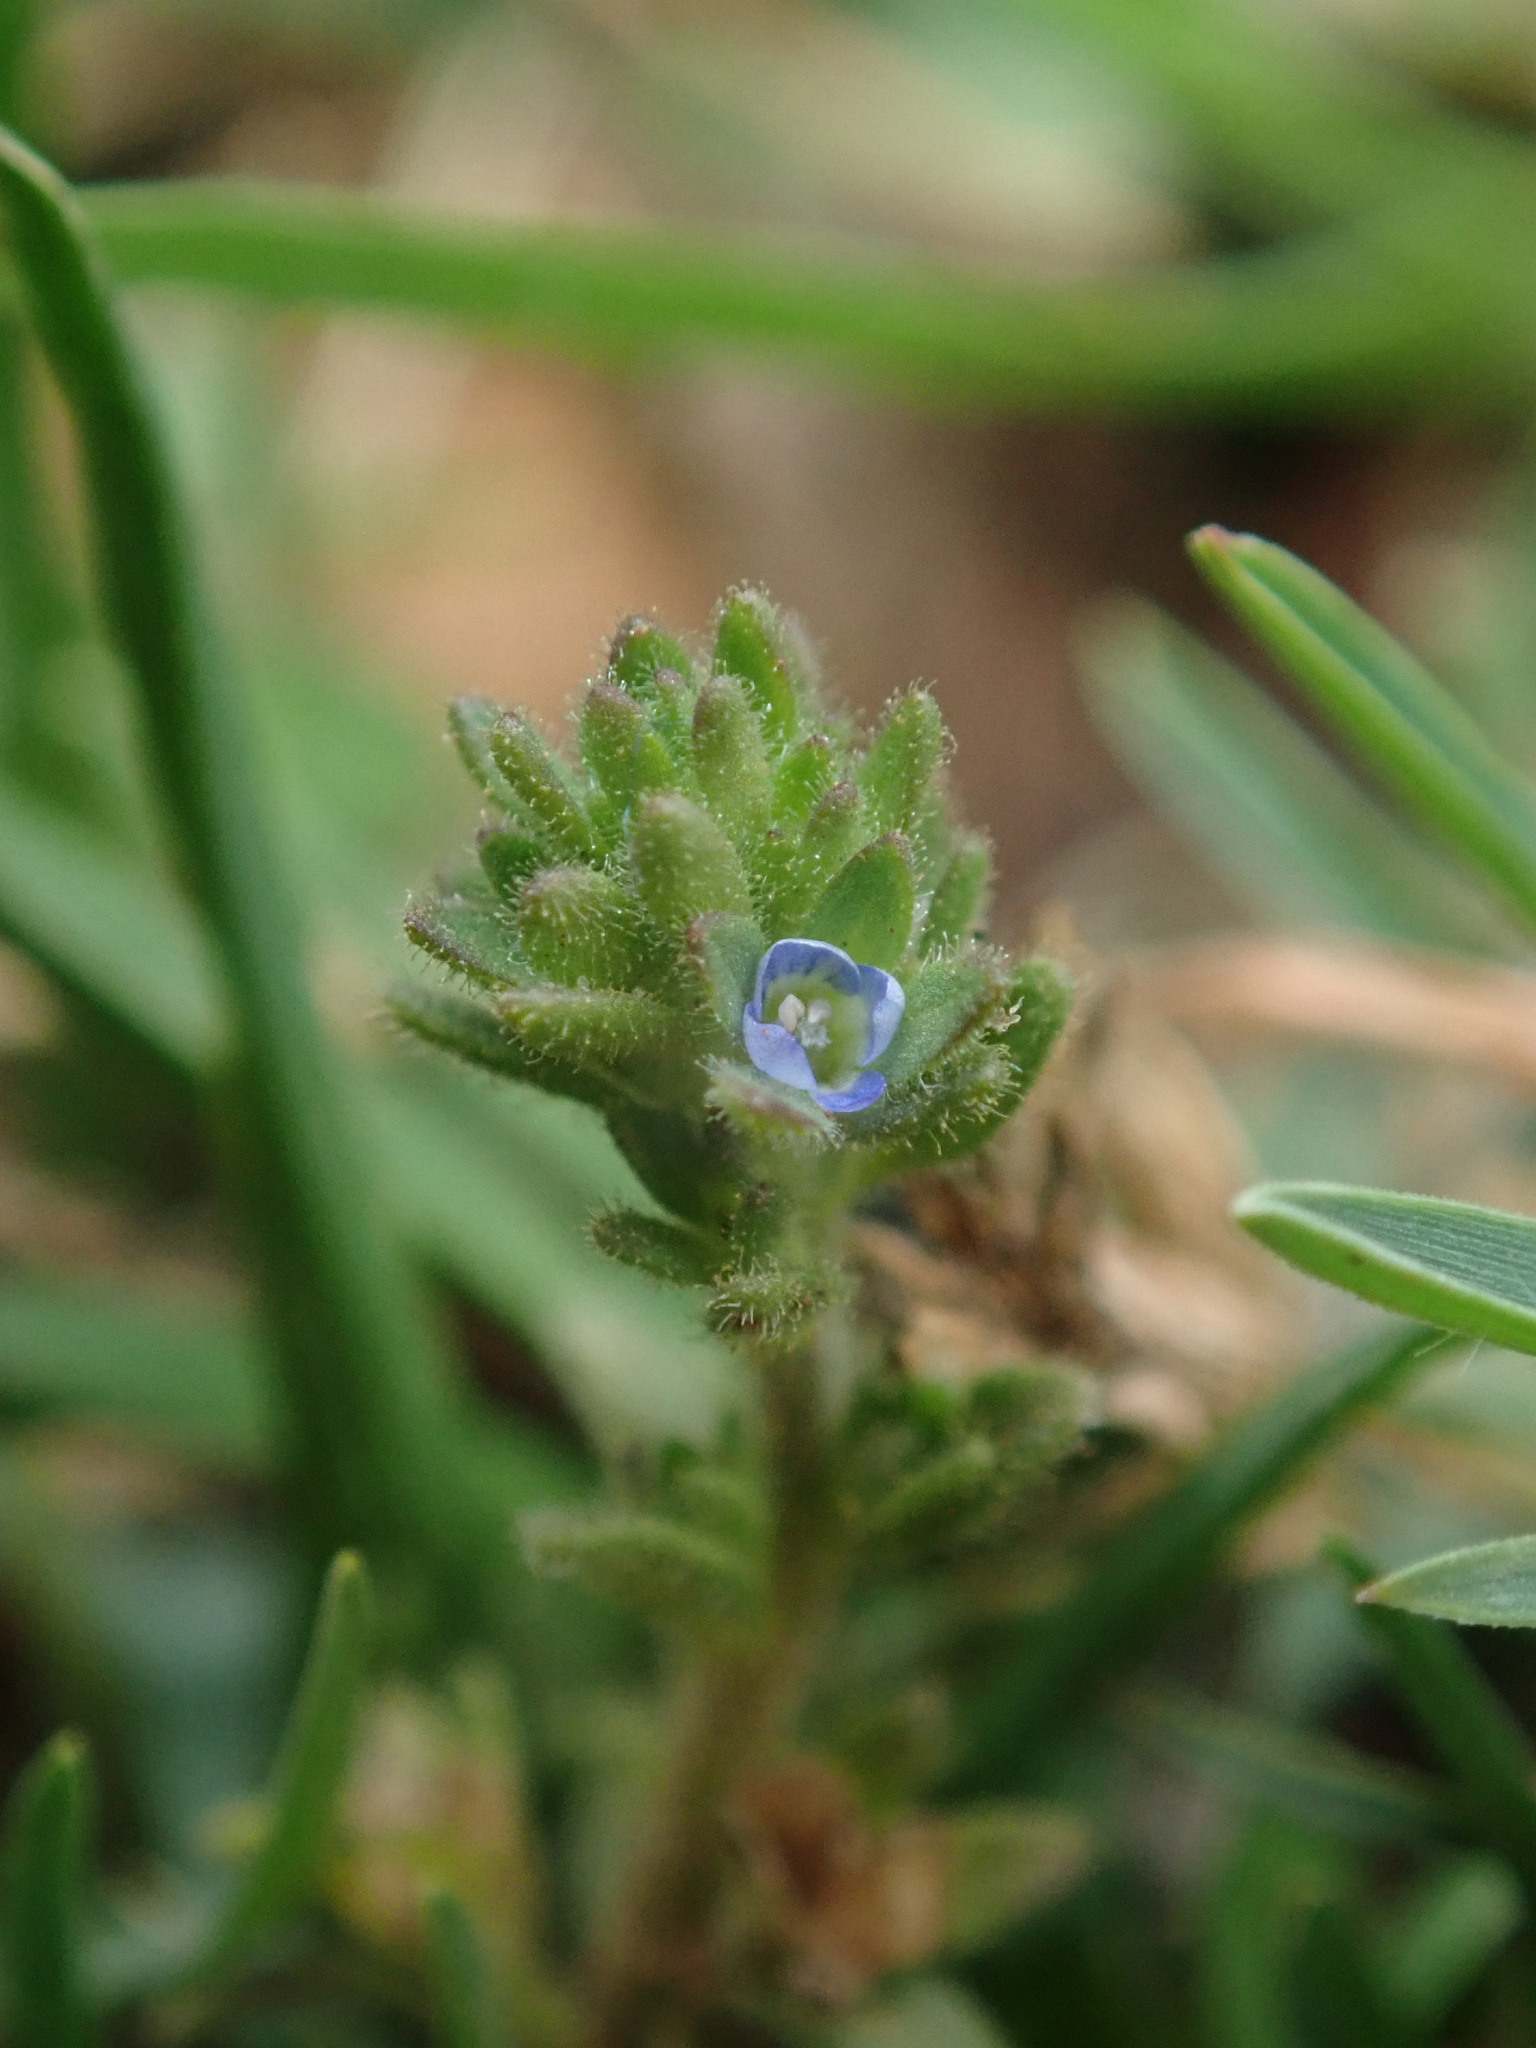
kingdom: Plantae
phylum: Tracheophyta
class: Magnoliopsida
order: Lamiales
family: Plantaginaceae
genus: Veronica
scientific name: Veronica arvensis
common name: Corn speedwell
